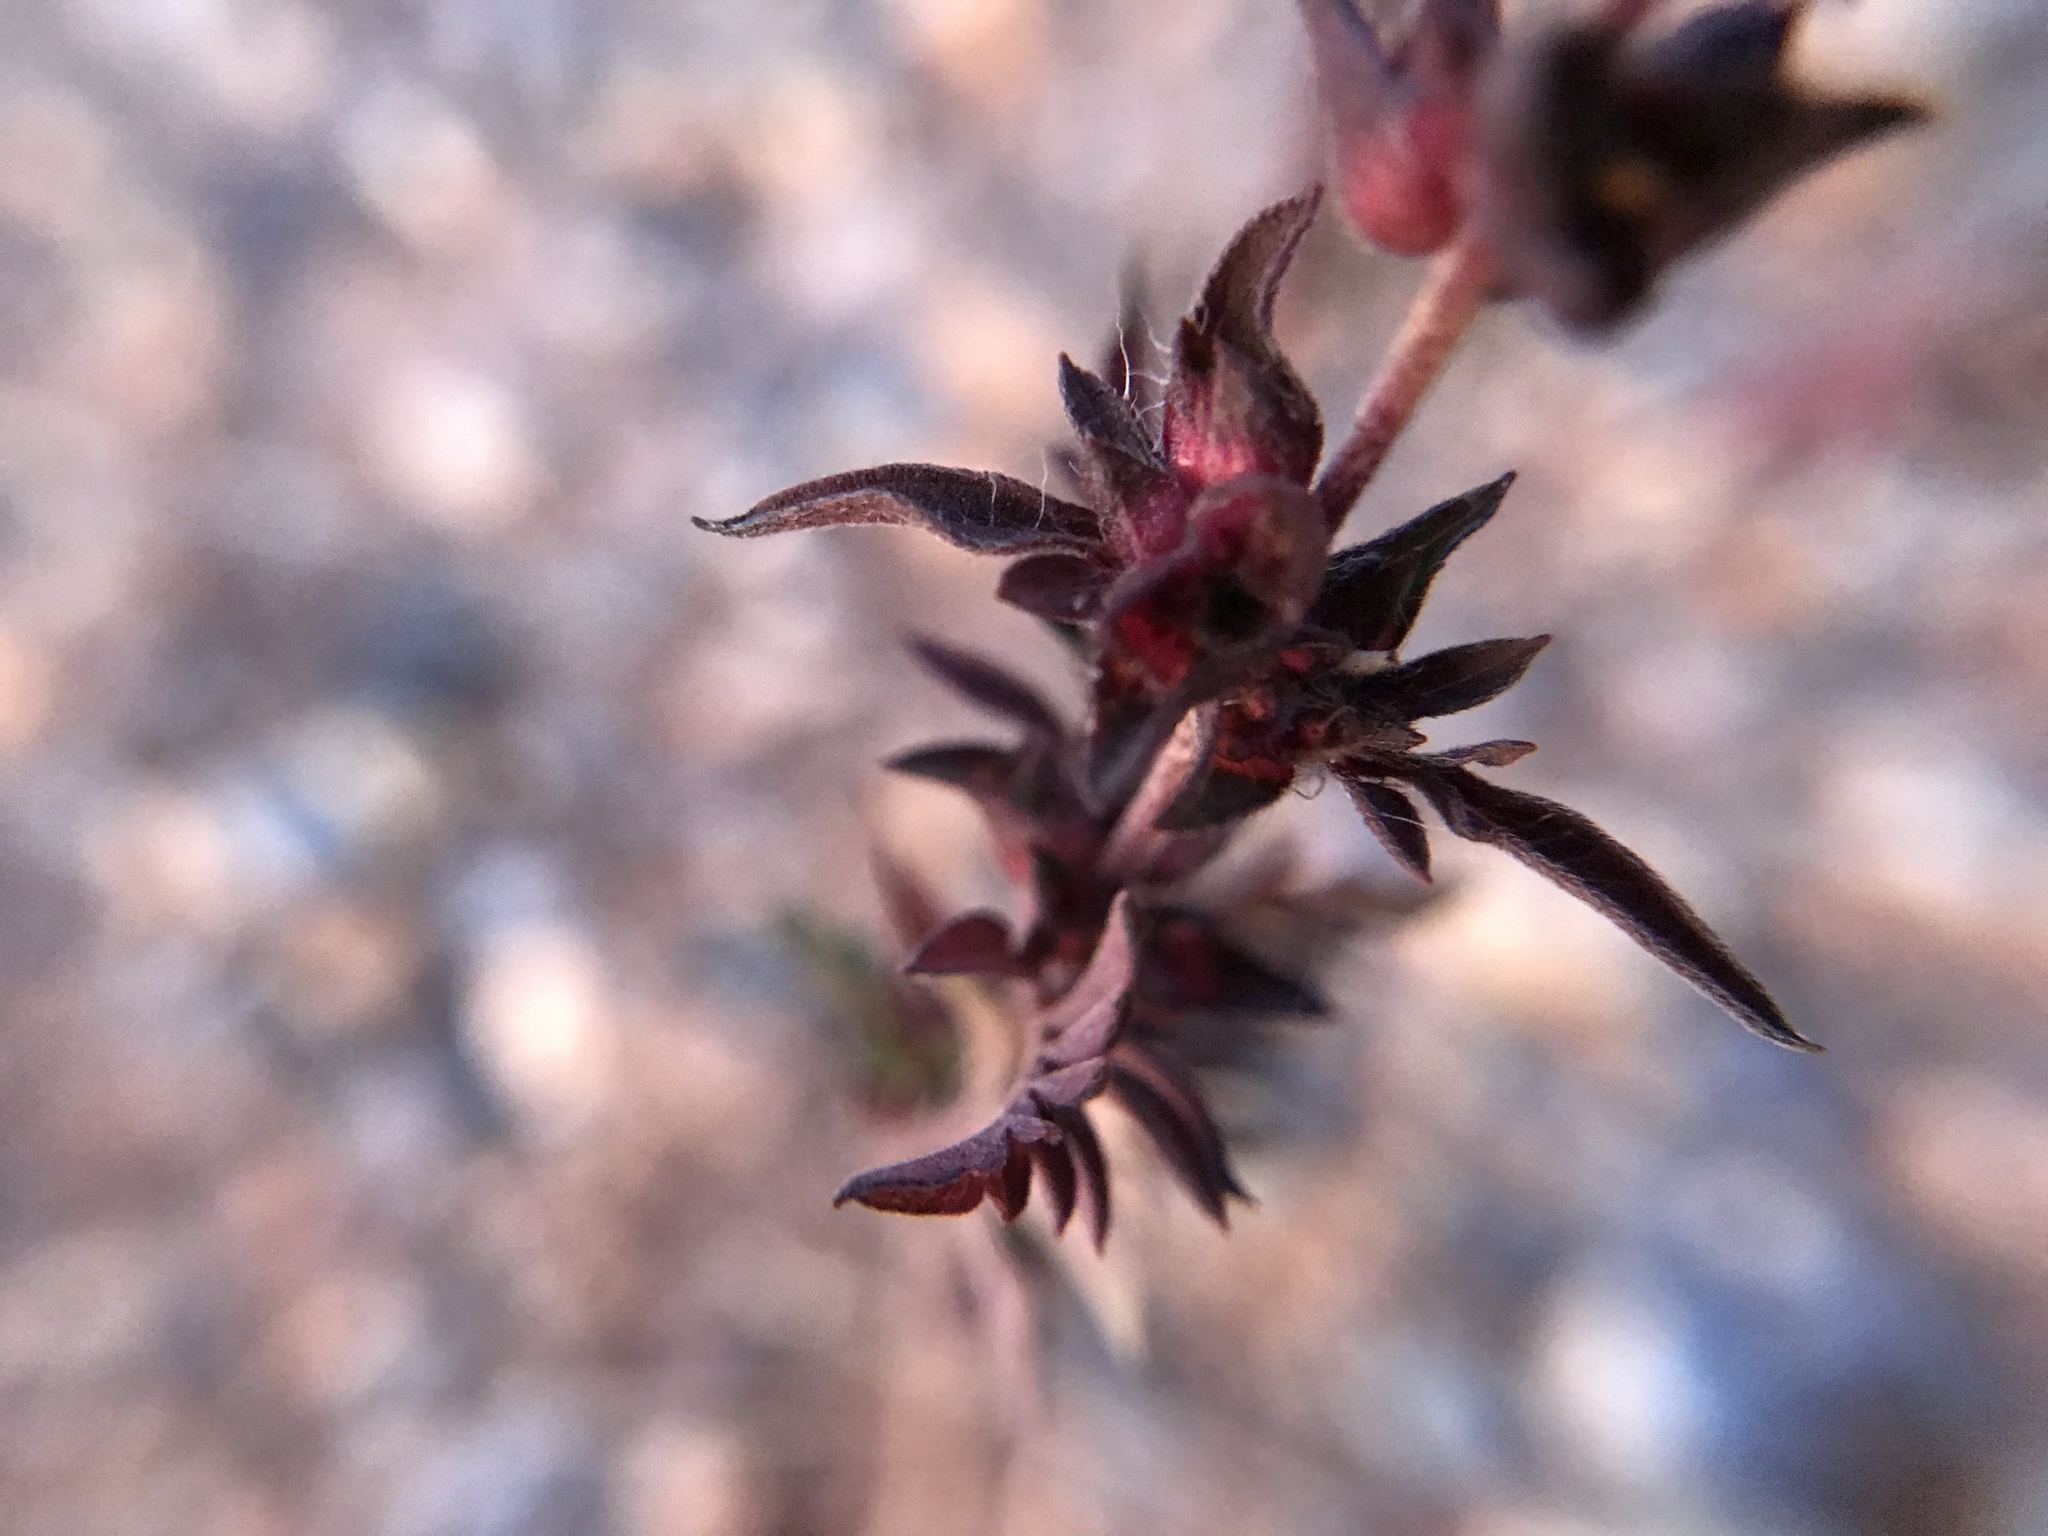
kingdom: Plantae
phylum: Tracheophyta
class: Magnoliopsida
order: Asterales
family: Asteraceae
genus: Ambrosia
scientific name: Ambrosia artemisiifolia
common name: Annual ragweed
